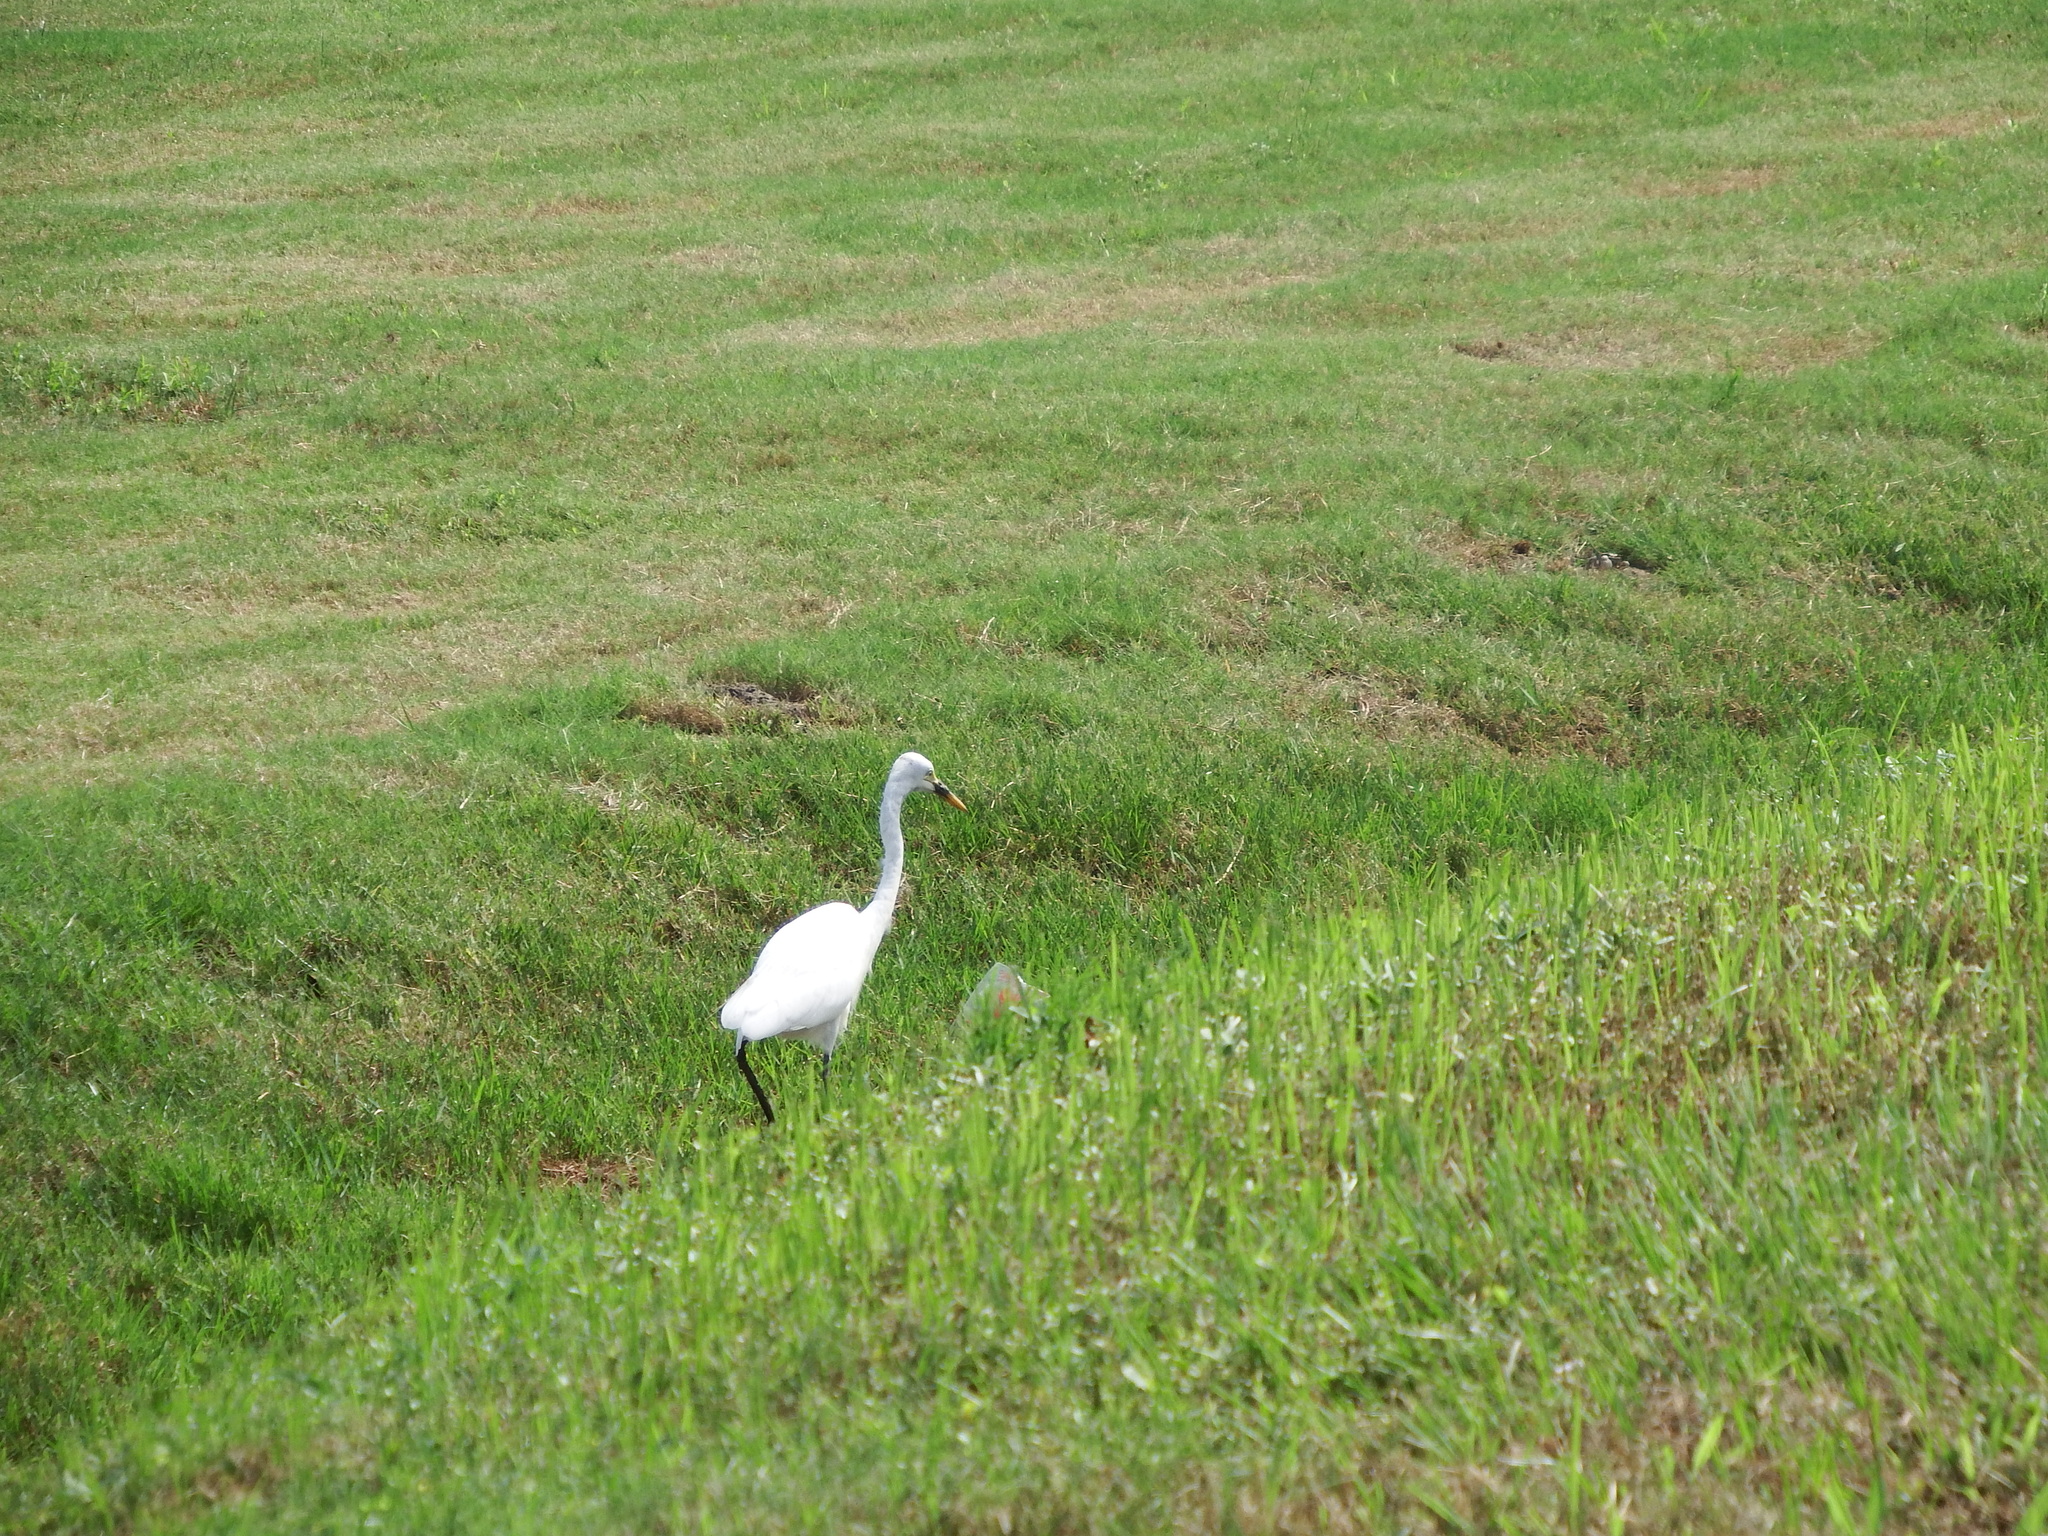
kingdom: Animalia
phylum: Chordata
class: Aves
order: Pelecaniformes
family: Ardeidae
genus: Egretta
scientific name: Egretta intermedia
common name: Intermediate egret
